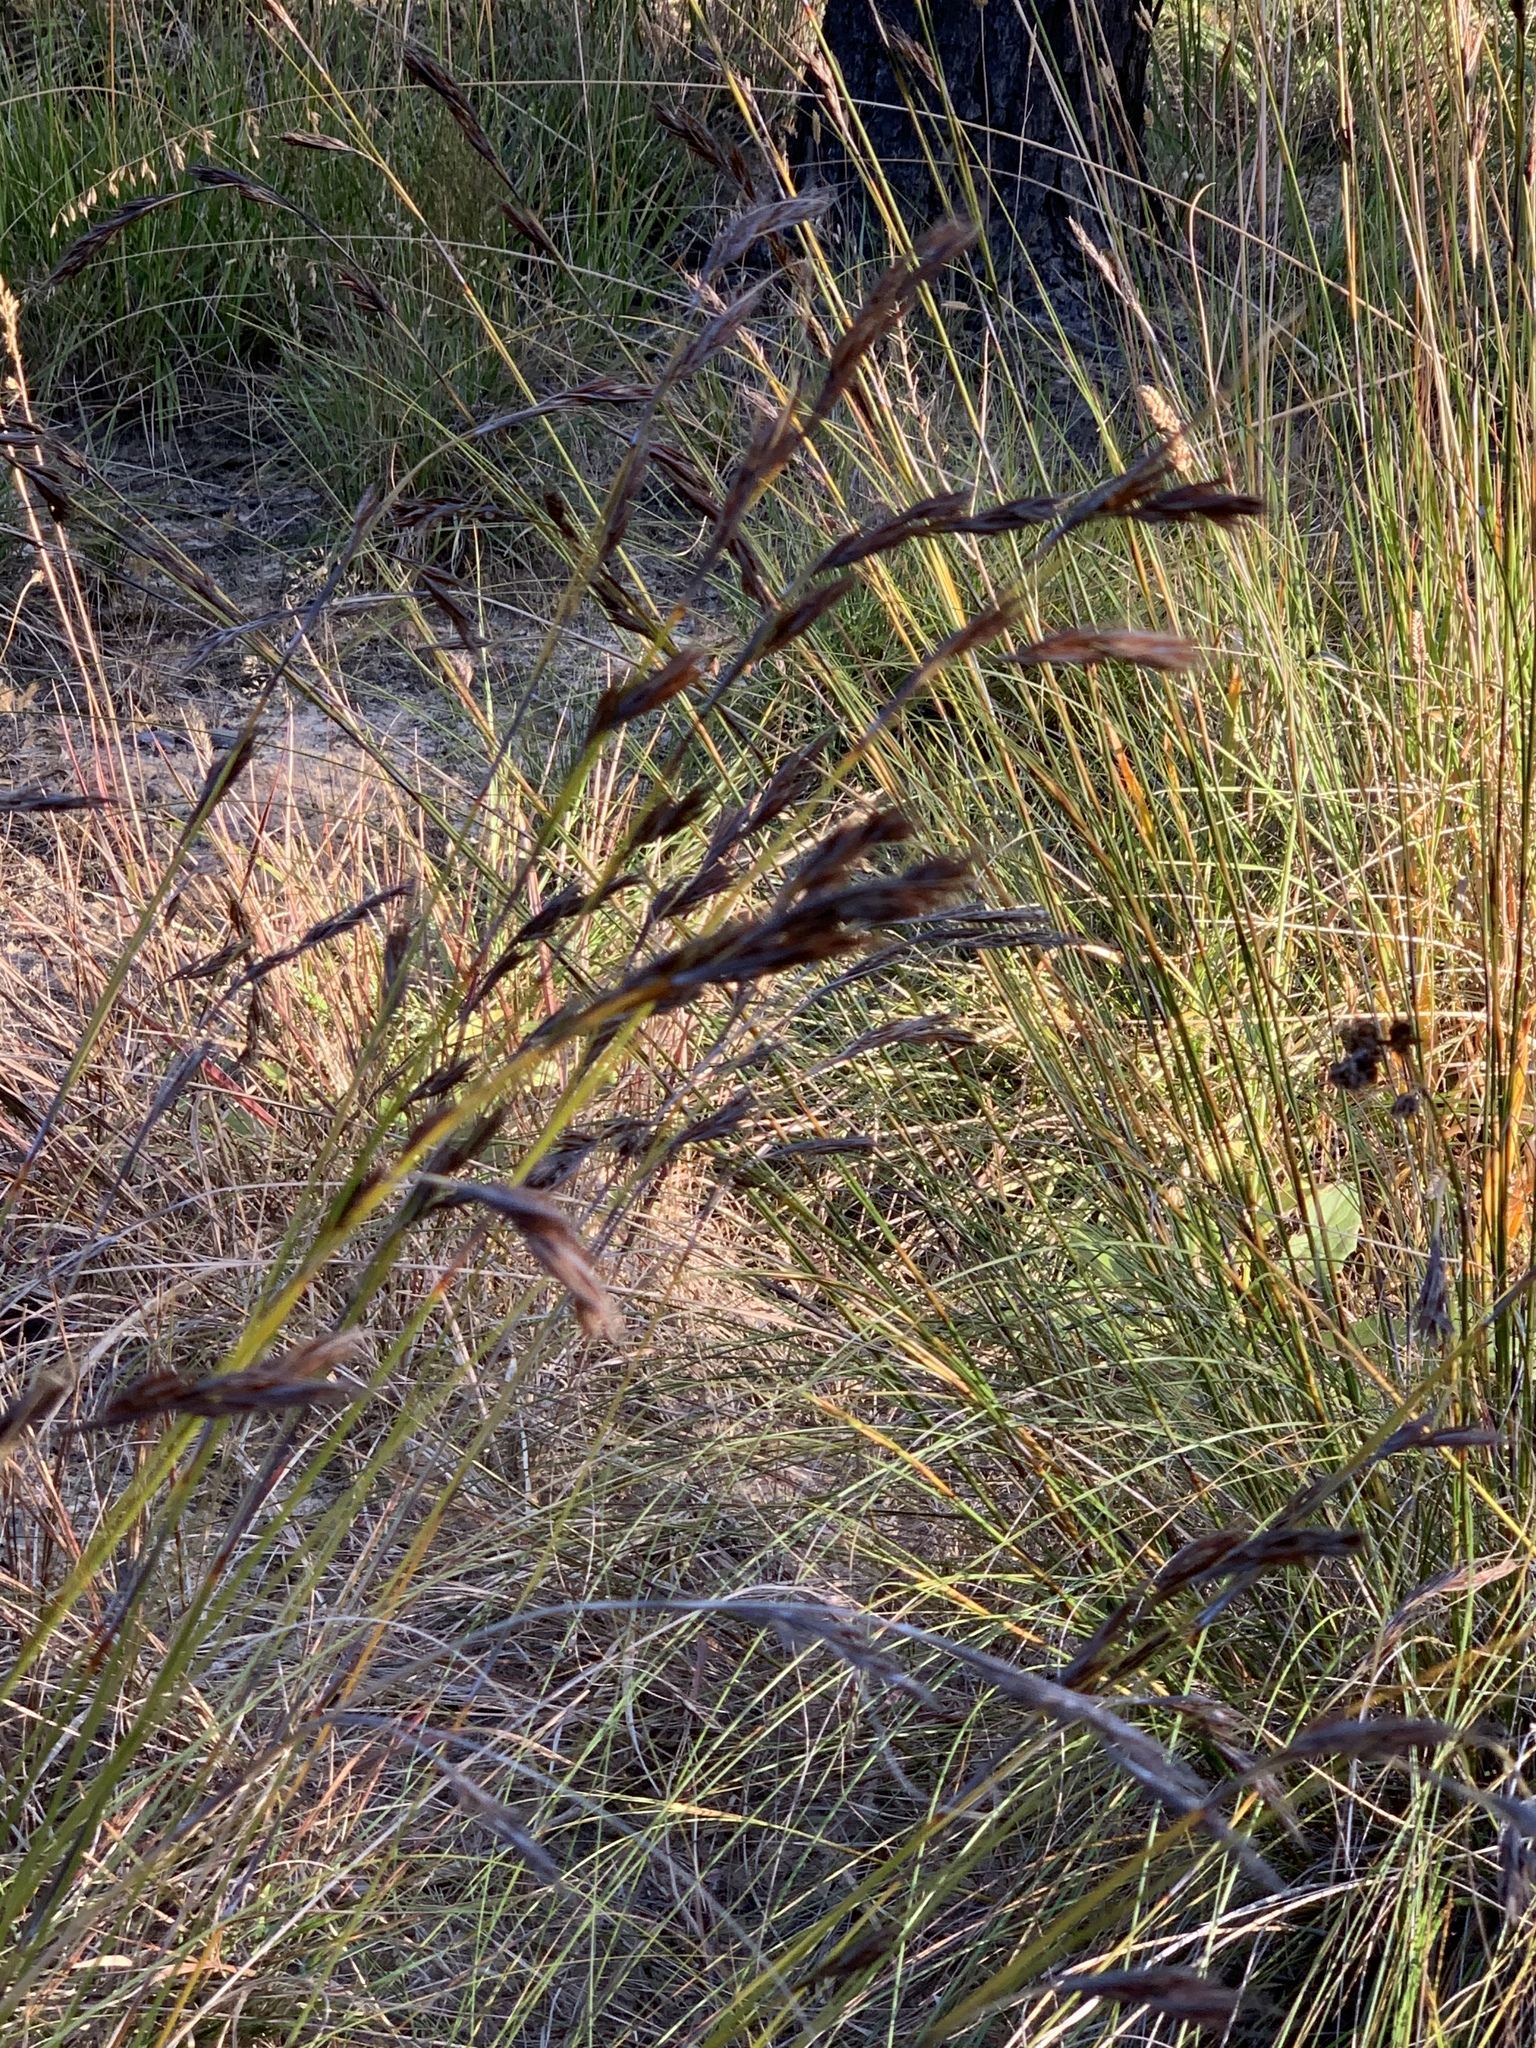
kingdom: Plantae
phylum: Tracheophyta
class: Liliopsida
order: Poales
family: Cyperaceae
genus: Tetraria
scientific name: Tetraria ustulata
